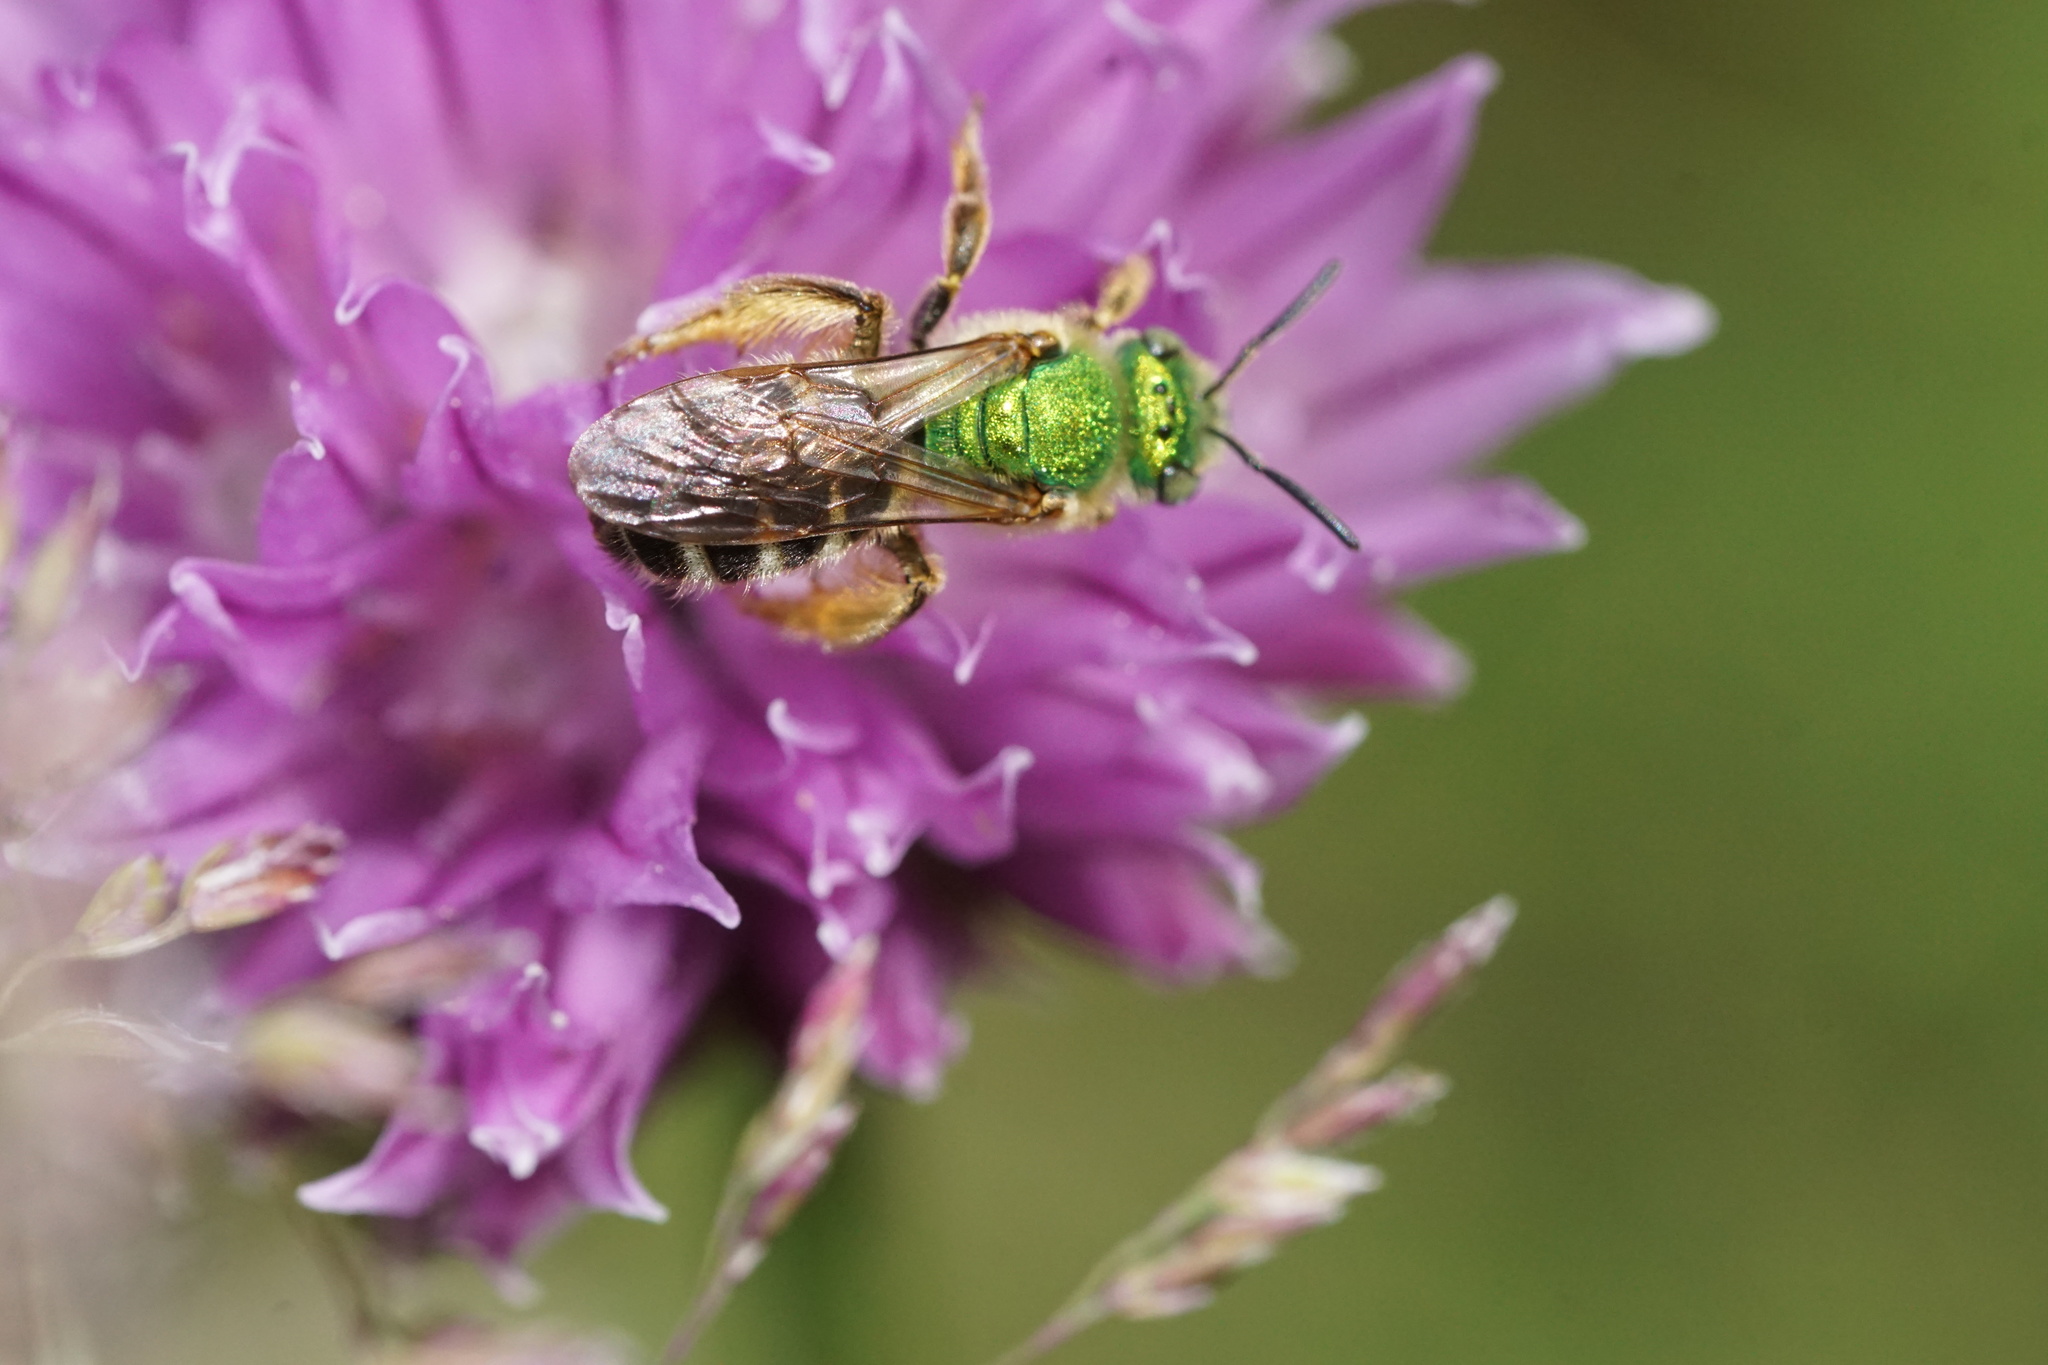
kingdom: Animalia
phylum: Arthropoda
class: Insecta
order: Hymenoptera
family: Halictidae
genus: Agapostemon
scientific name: Agapostemon virescens
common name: Bicolored striped sweat bee
